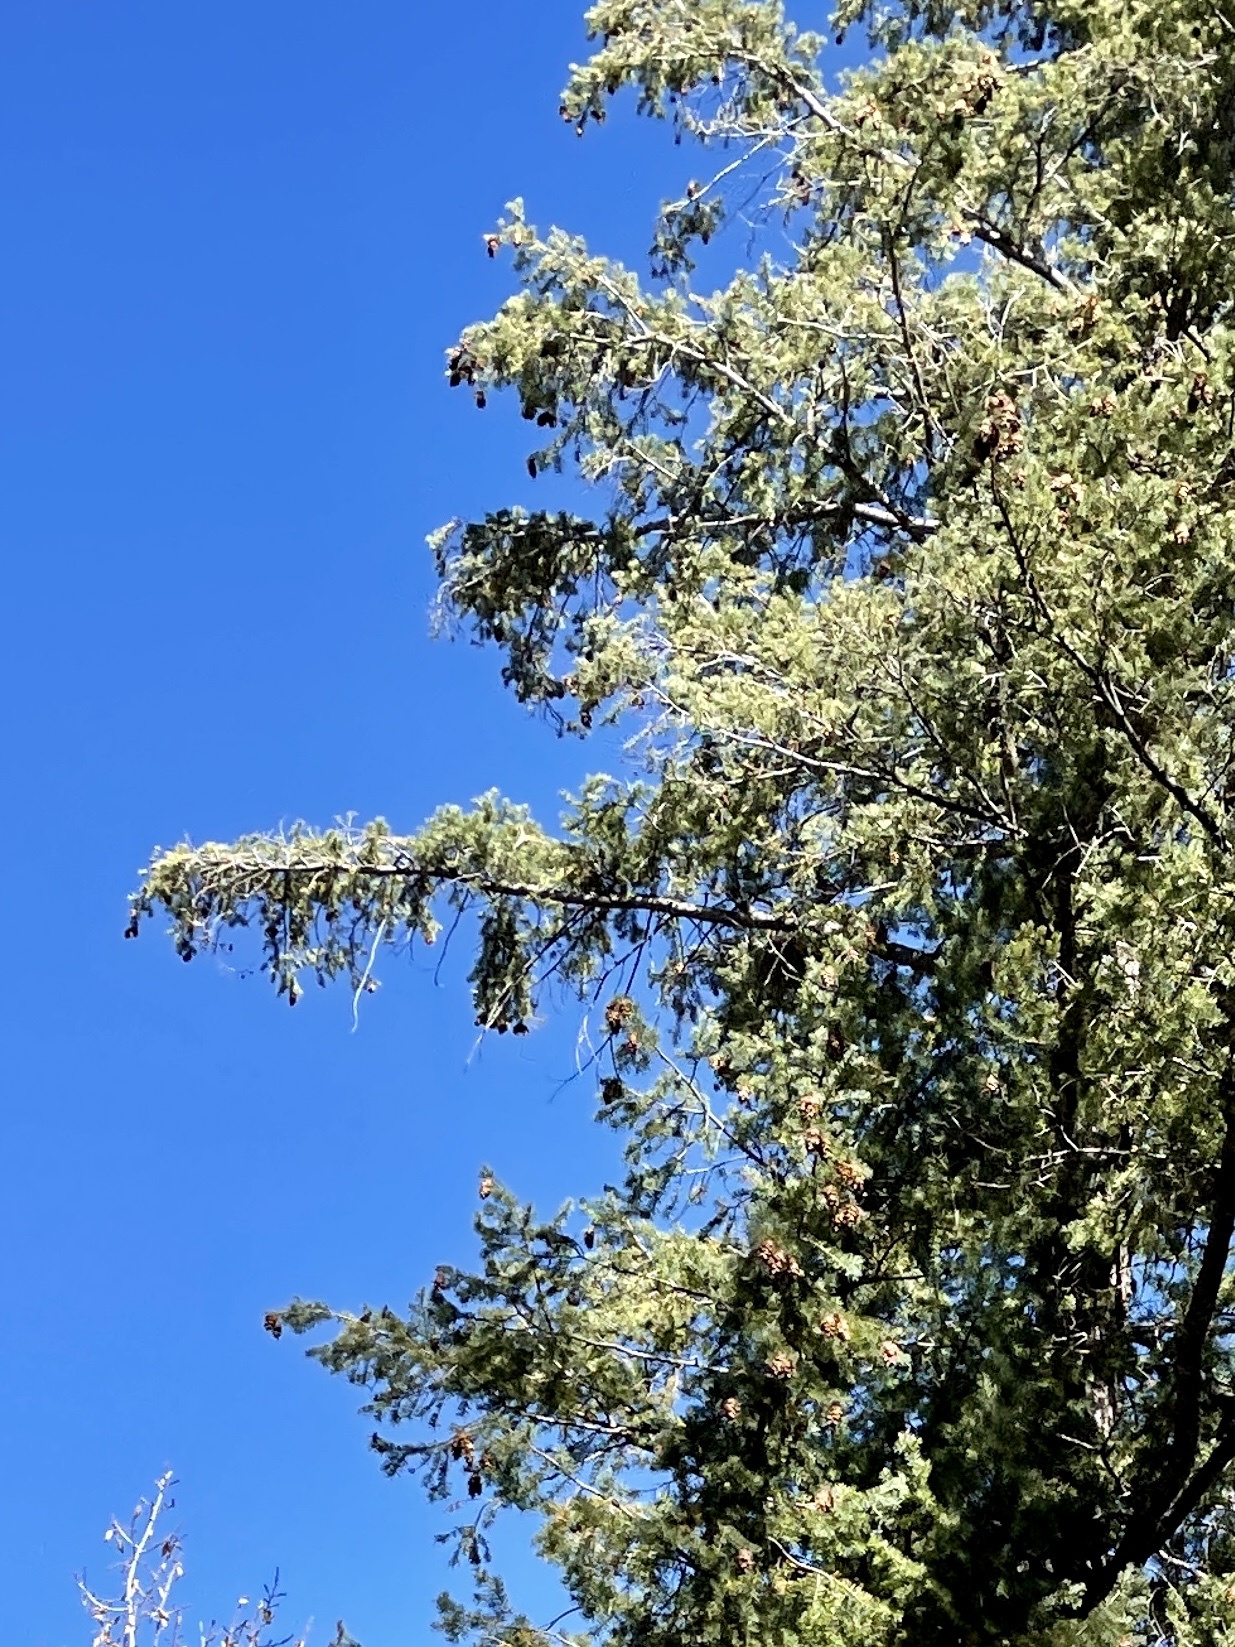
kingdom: Plantae
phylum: Tracheophyta
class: Pinopsida
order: Pinales
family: Pinaceae
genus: Pseudotsuga
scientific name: Pseudotsuga menziesii
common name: Douglas fir
